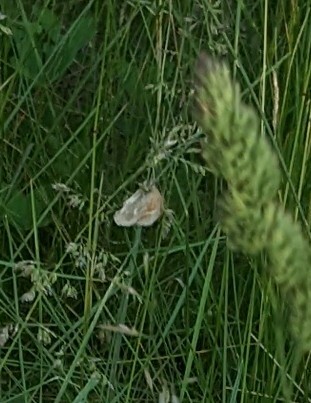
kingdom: Animalia
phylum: Arthropoda
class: Insecta
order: Lepidoptera
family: Nymphalidae
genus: Coenonympha
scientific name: Coenonympha california
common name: Common ringlet
